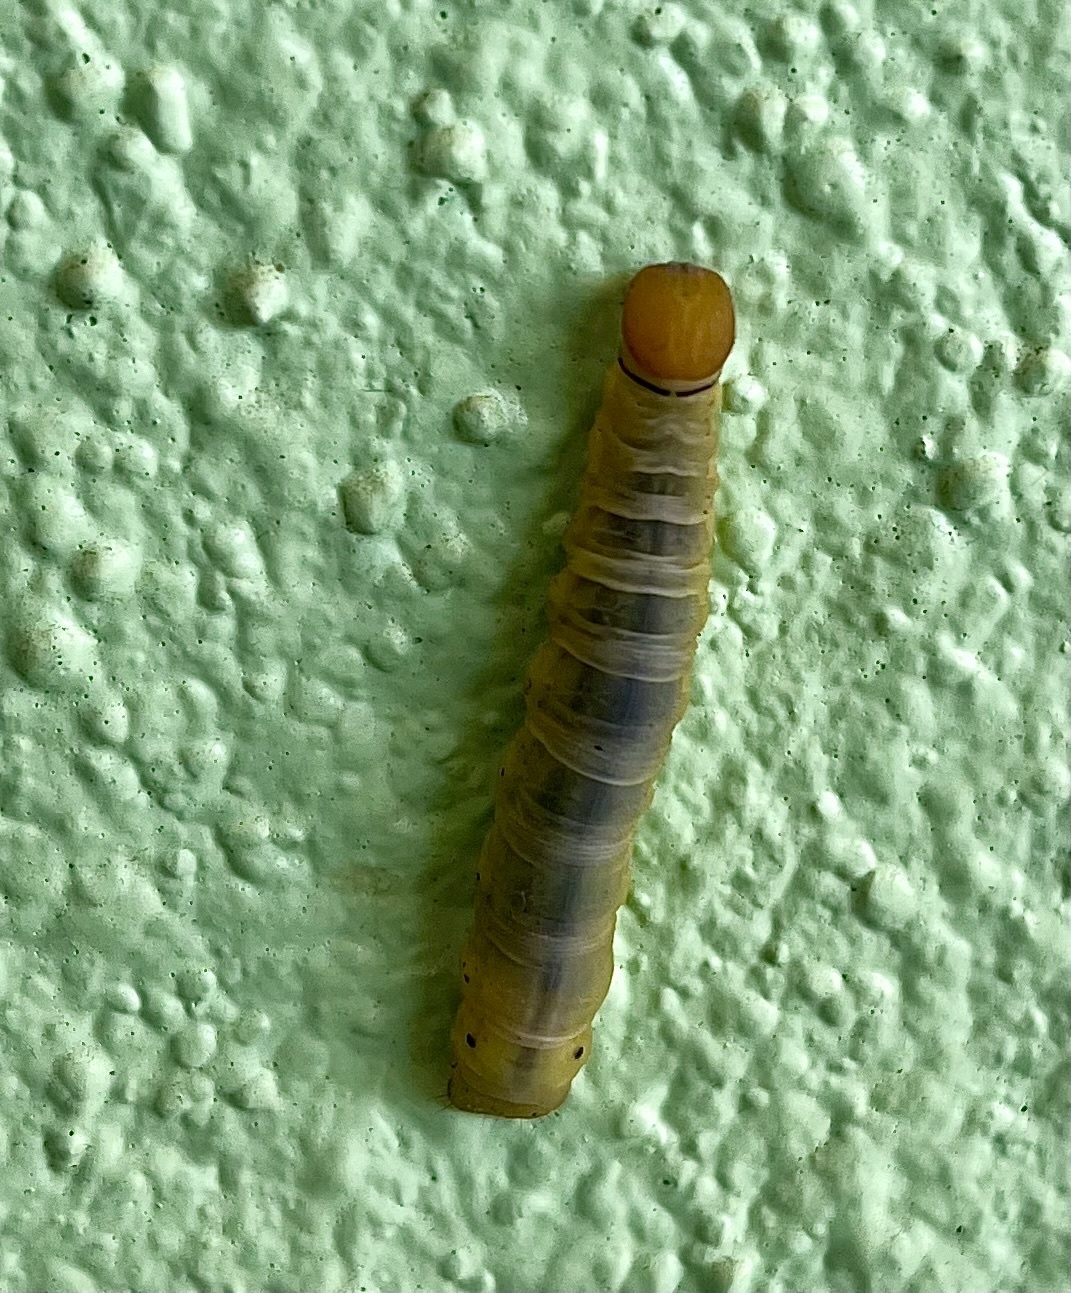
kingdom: Animalia
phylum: Arthropoda
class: Insecta
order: Lepidoptera
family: Hesperiidae
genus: Asbolis
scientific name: Asbolis capucinus
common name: Monk skipper
